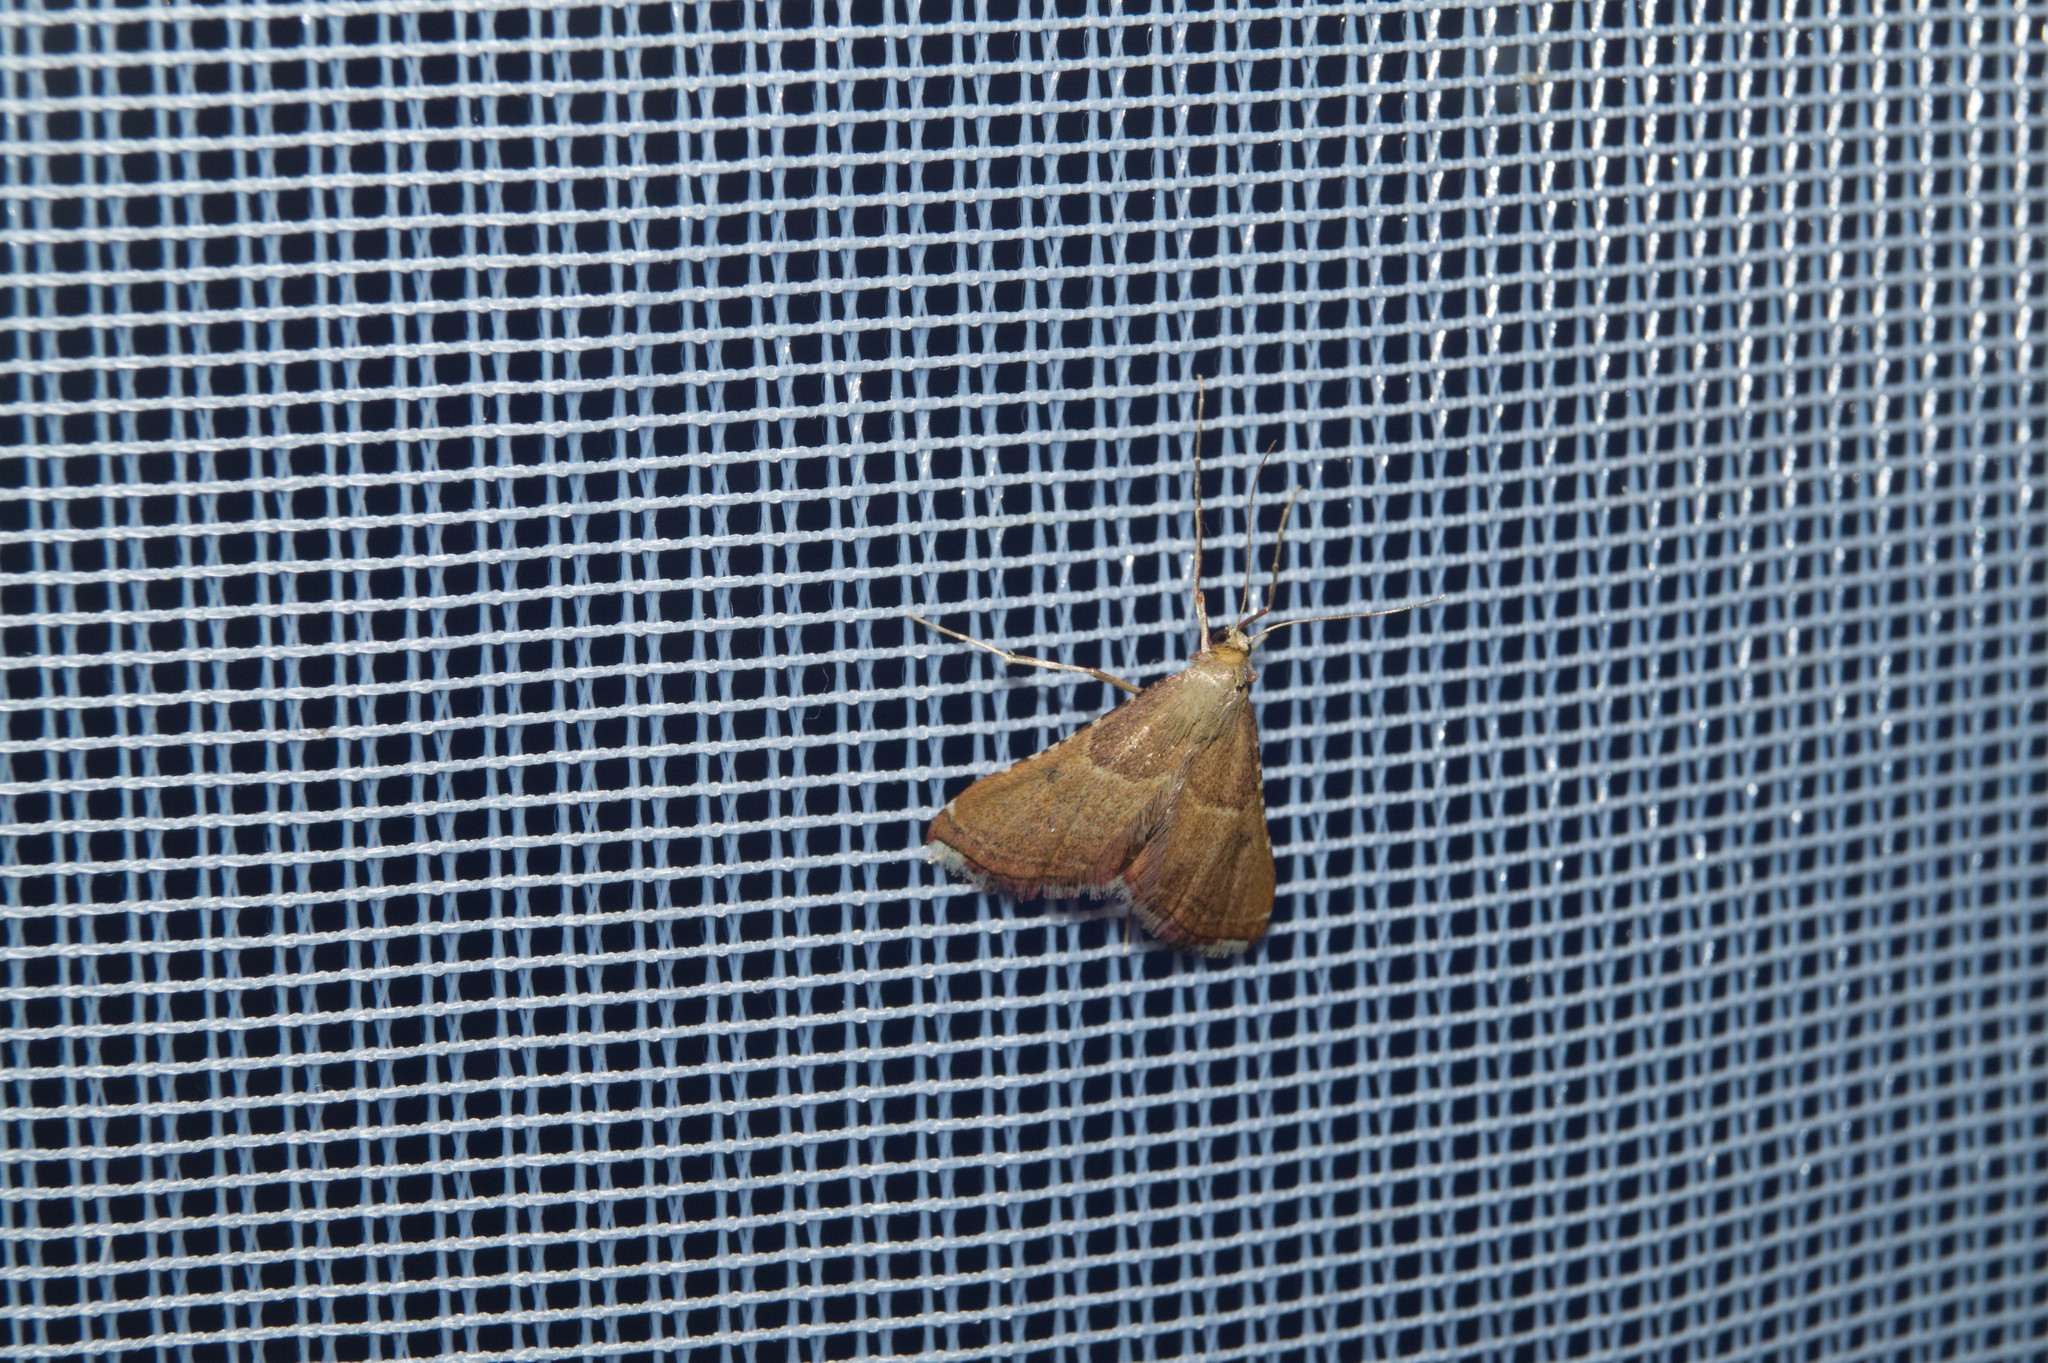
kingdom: Animalia
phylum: Arthropoda
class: Insecta
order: Lepidoptera
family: Pyralidae
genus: Endotricha
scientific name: Endotricha flammealis
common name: Rosy tabby
